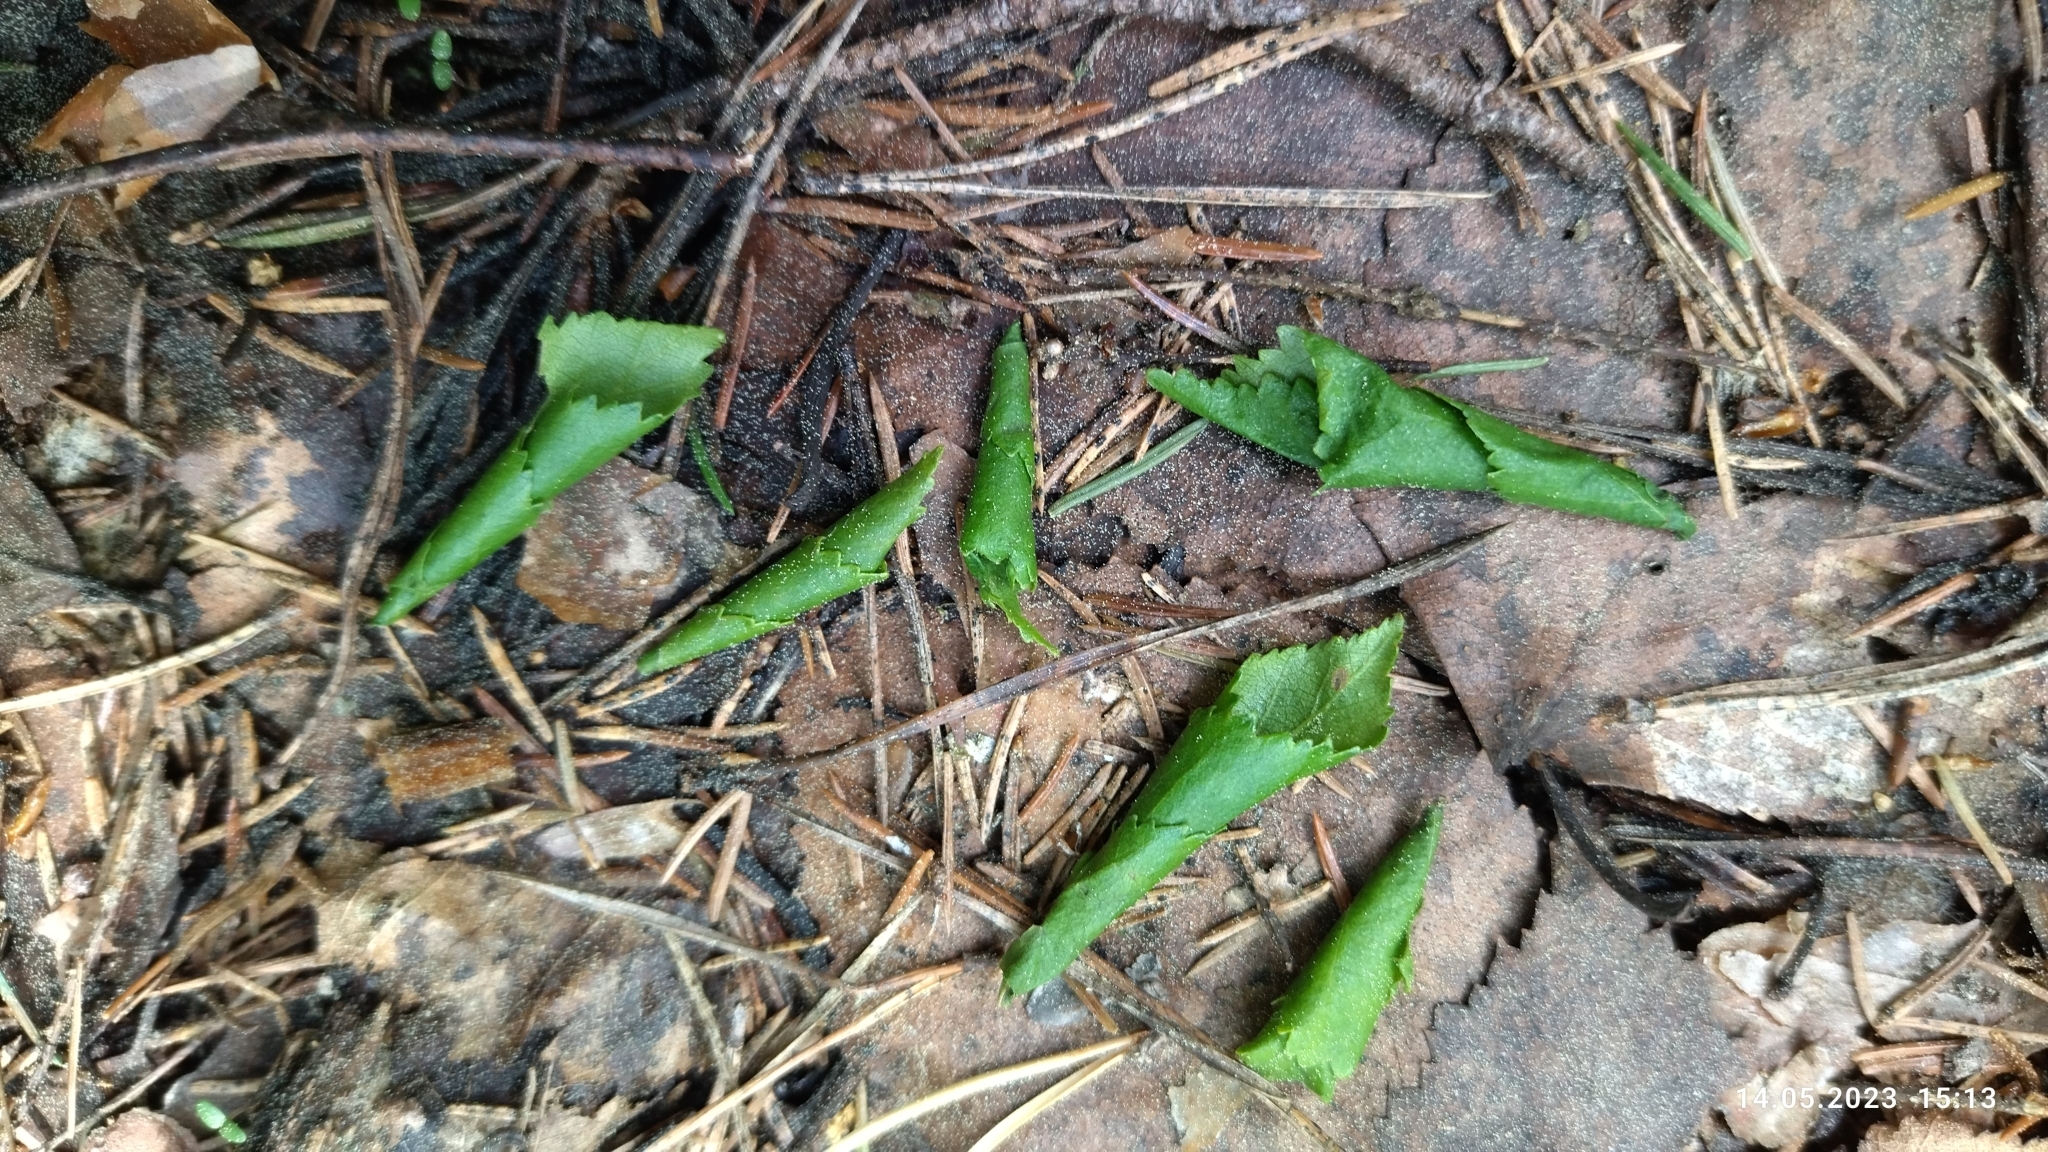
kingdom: Animalia
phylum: Arthropoda
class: Insecta
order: Coleoptera
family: Attelabidae
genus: Deporaus
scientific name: Deporaus betulae
